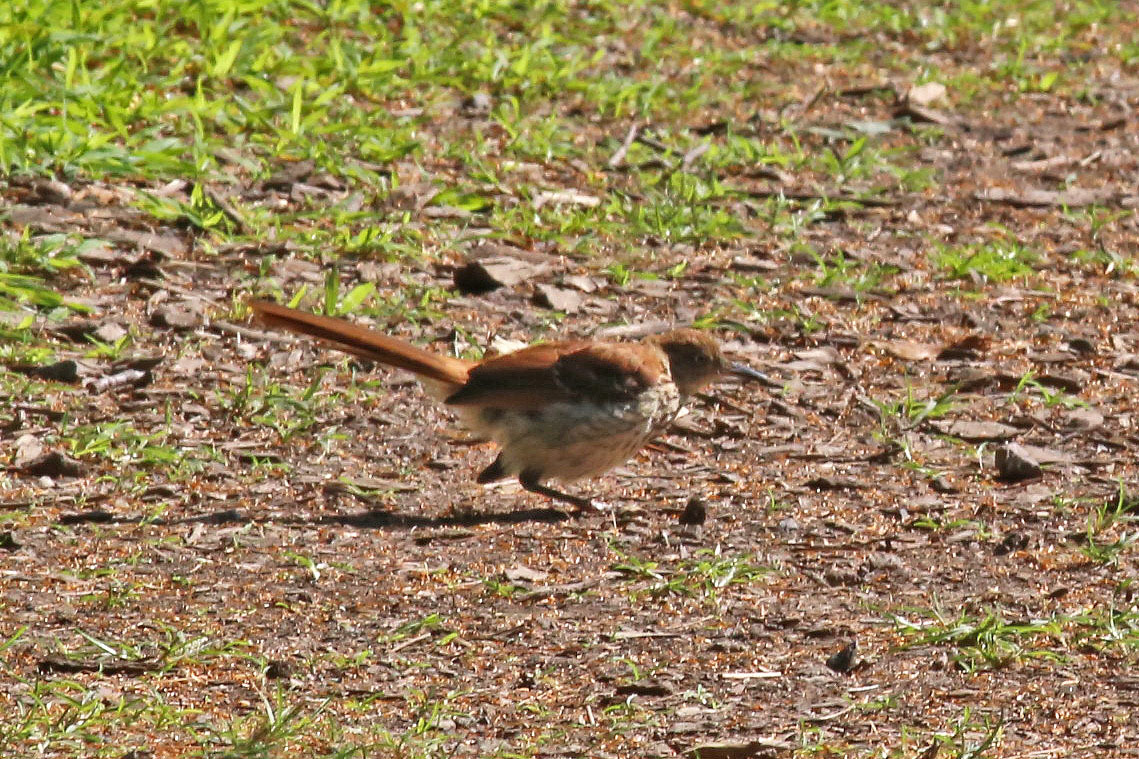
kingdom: Animalia
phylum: Chordata
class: Aves
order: Passeriformes
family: Mimidae
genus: Toxostoma
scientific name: Toxostoma rufum
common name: Brown thrasher
